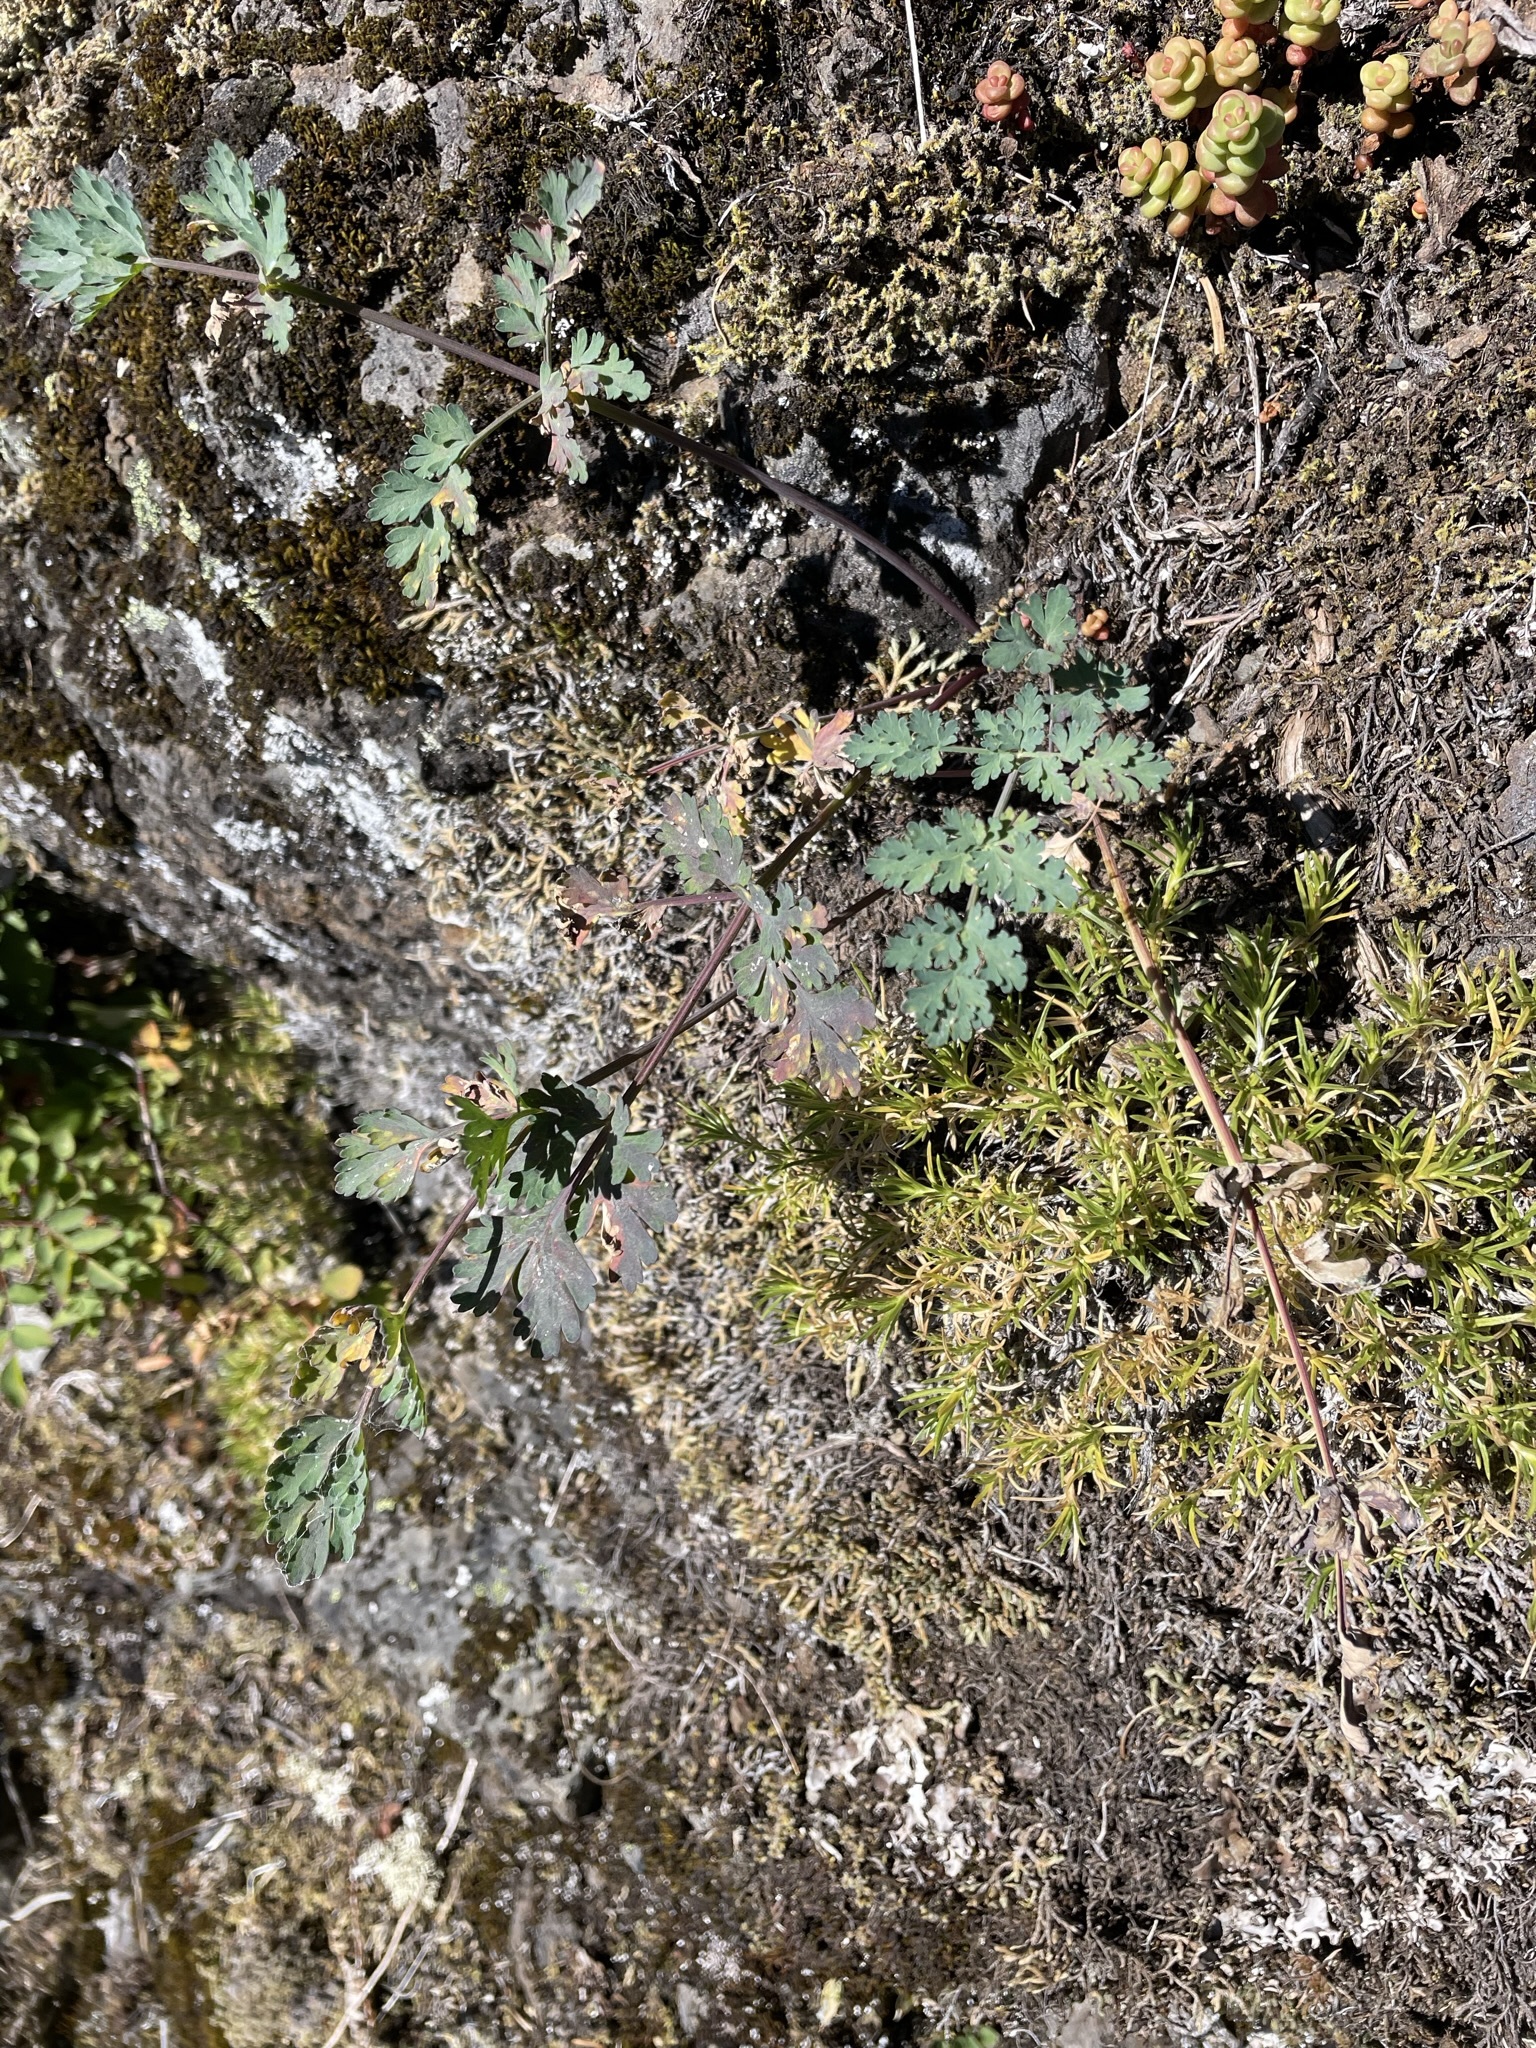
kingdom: Plantae
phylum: Tracheophyta
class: Magnoliopsida
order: Apiales
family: Apiaceae
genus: Lomatium
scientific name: Lomatium martindalei
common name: Cascade desert-parsley
